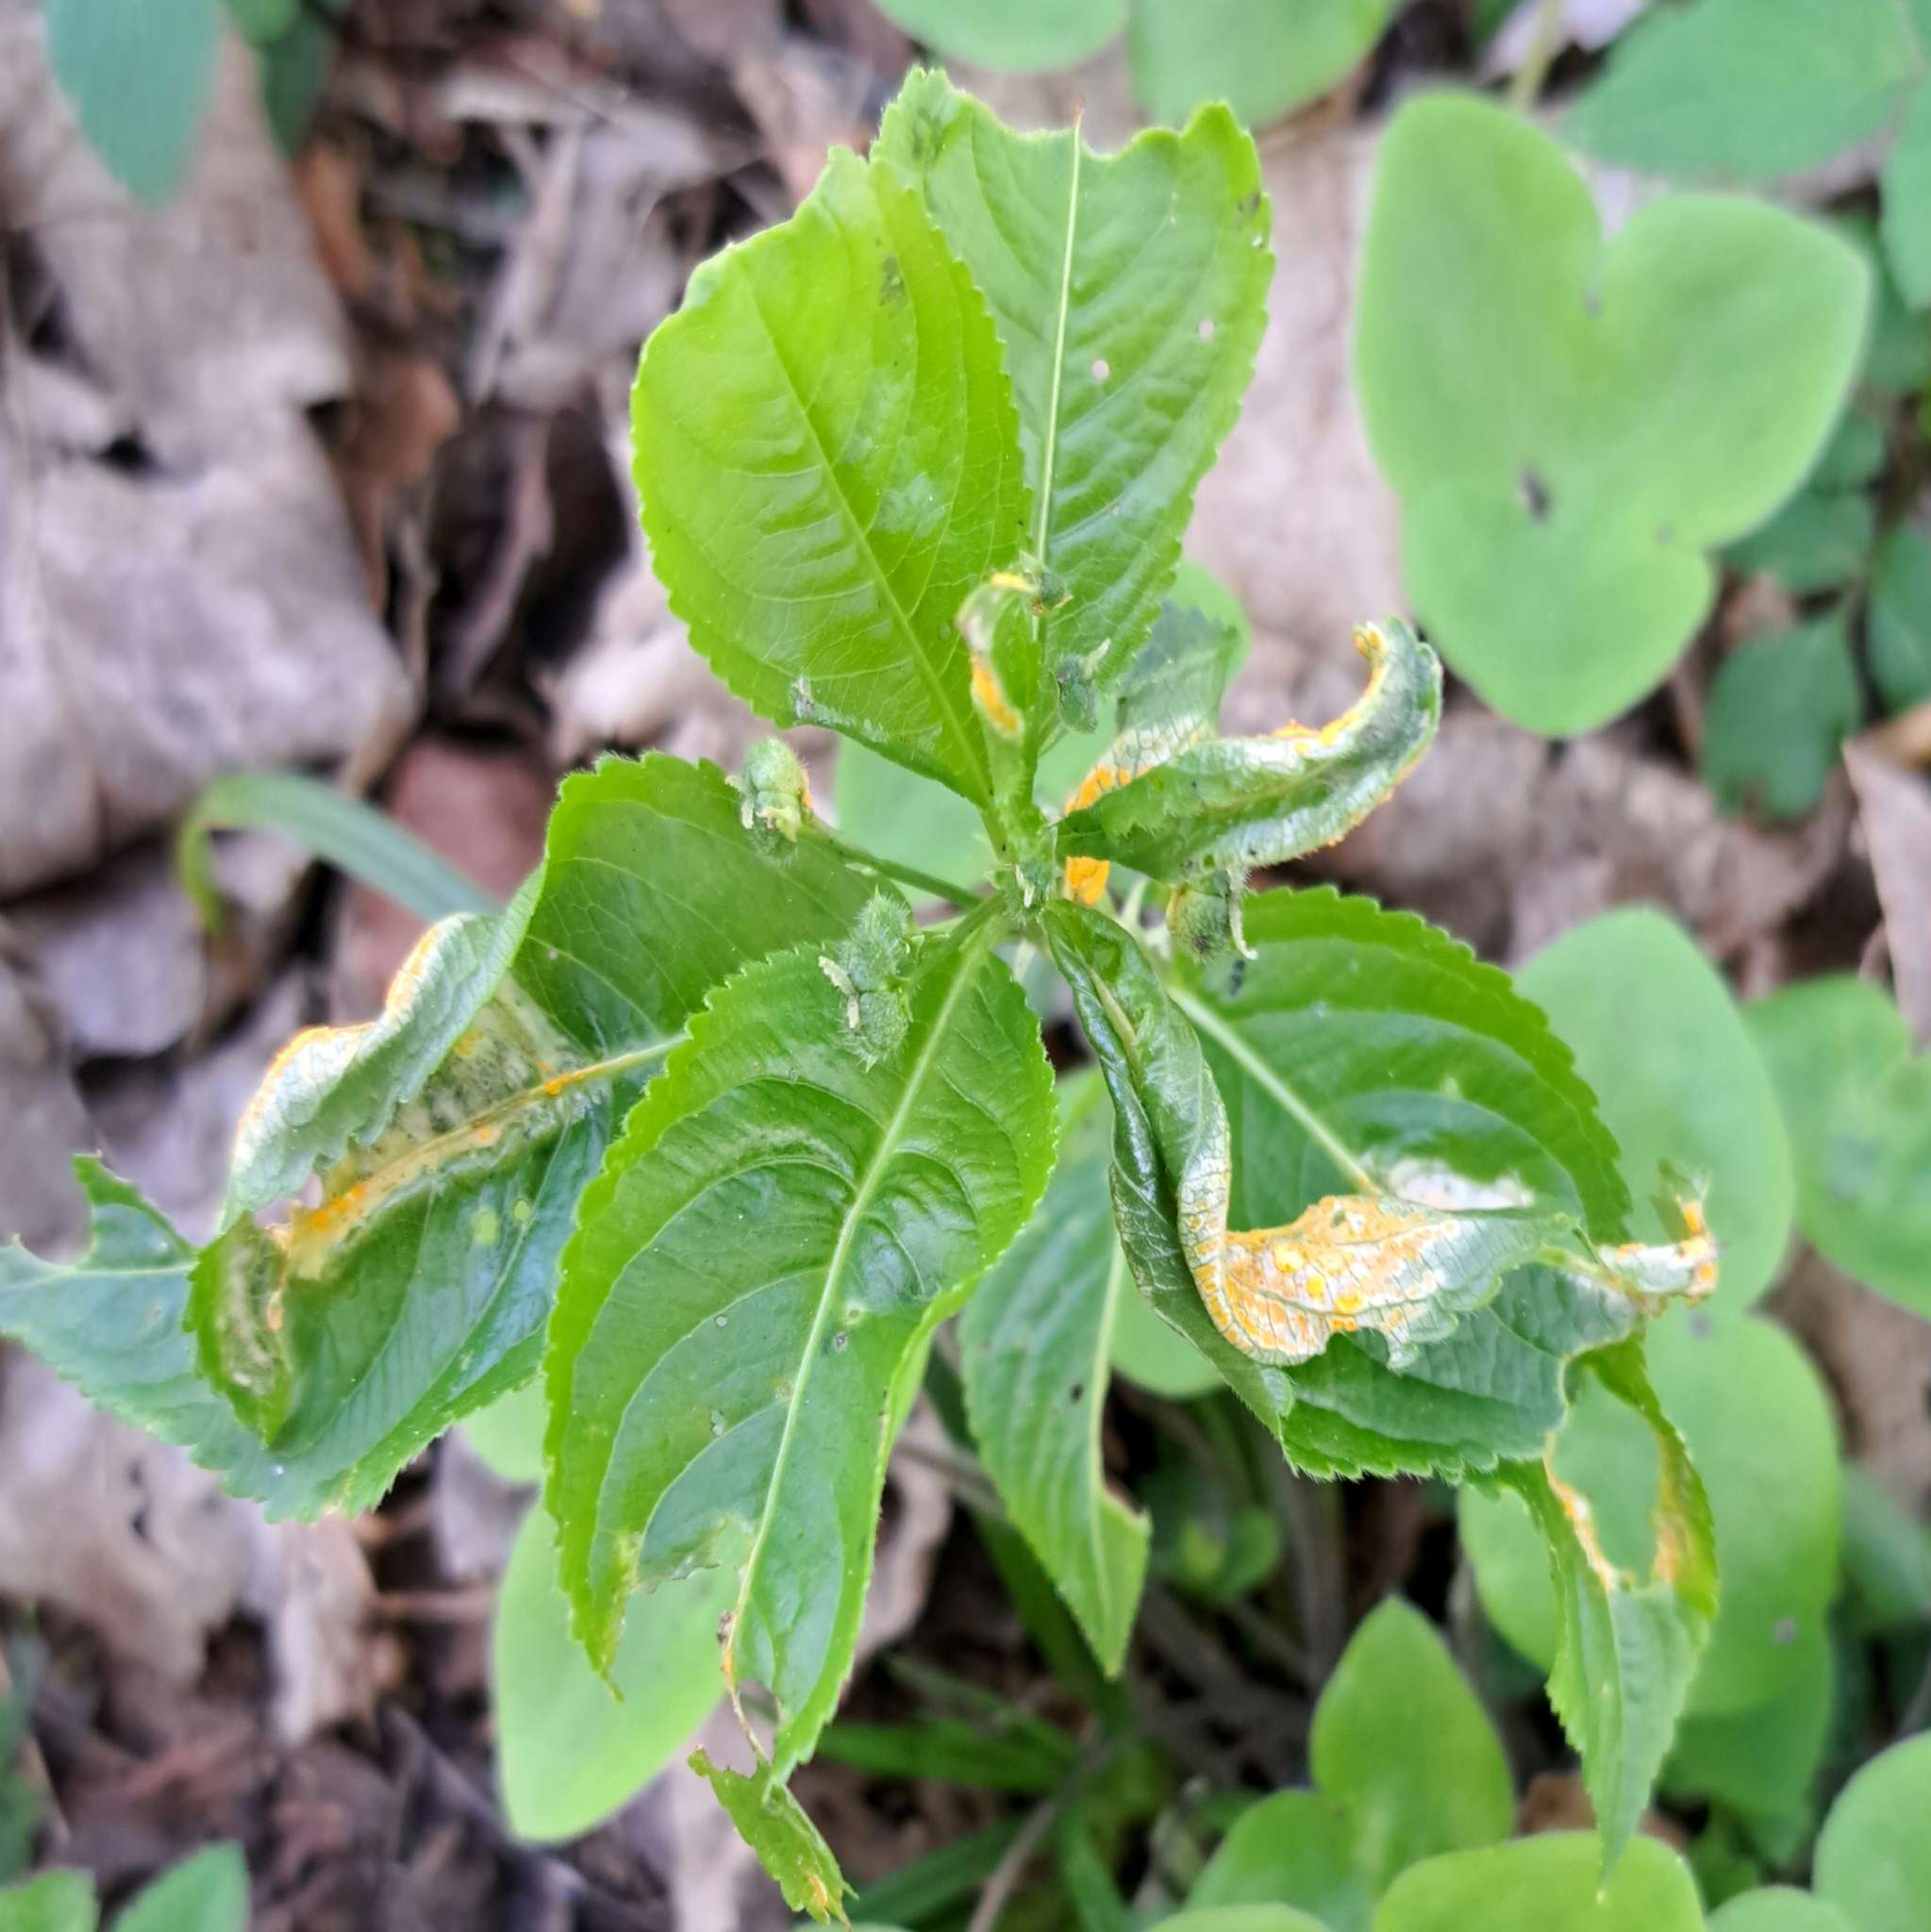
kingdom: Fungi
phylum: Basidiomycota
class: Pucciniomycetes
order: Pucciniales
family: Melampsoraceae
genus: Melampsora
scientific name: Melampsora rostrupii
